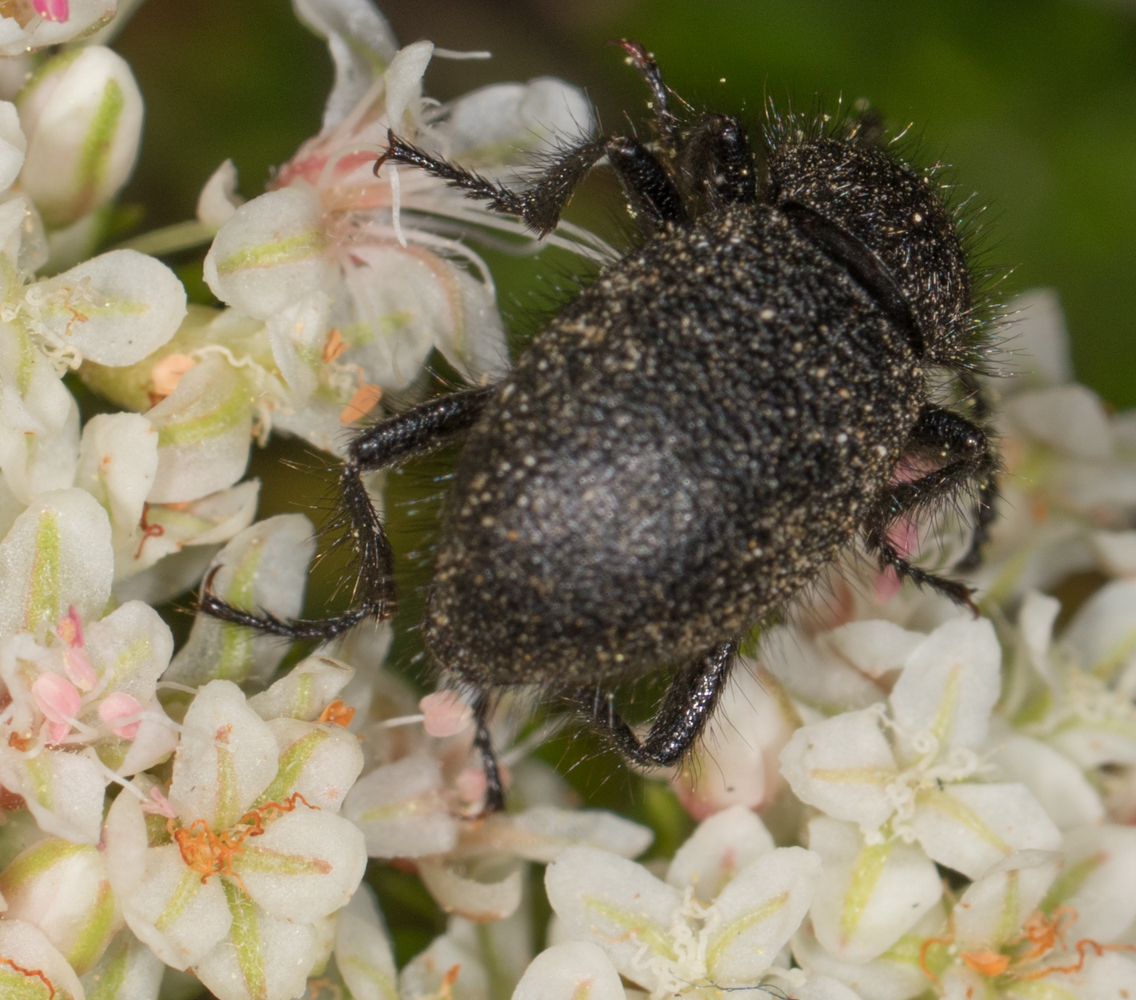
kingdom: Animalia
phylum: Arthropoda
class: Insecta
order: Coleoptera
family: Tenebrionidae
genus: Eleodes
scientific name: Eleodes nigropilosa
